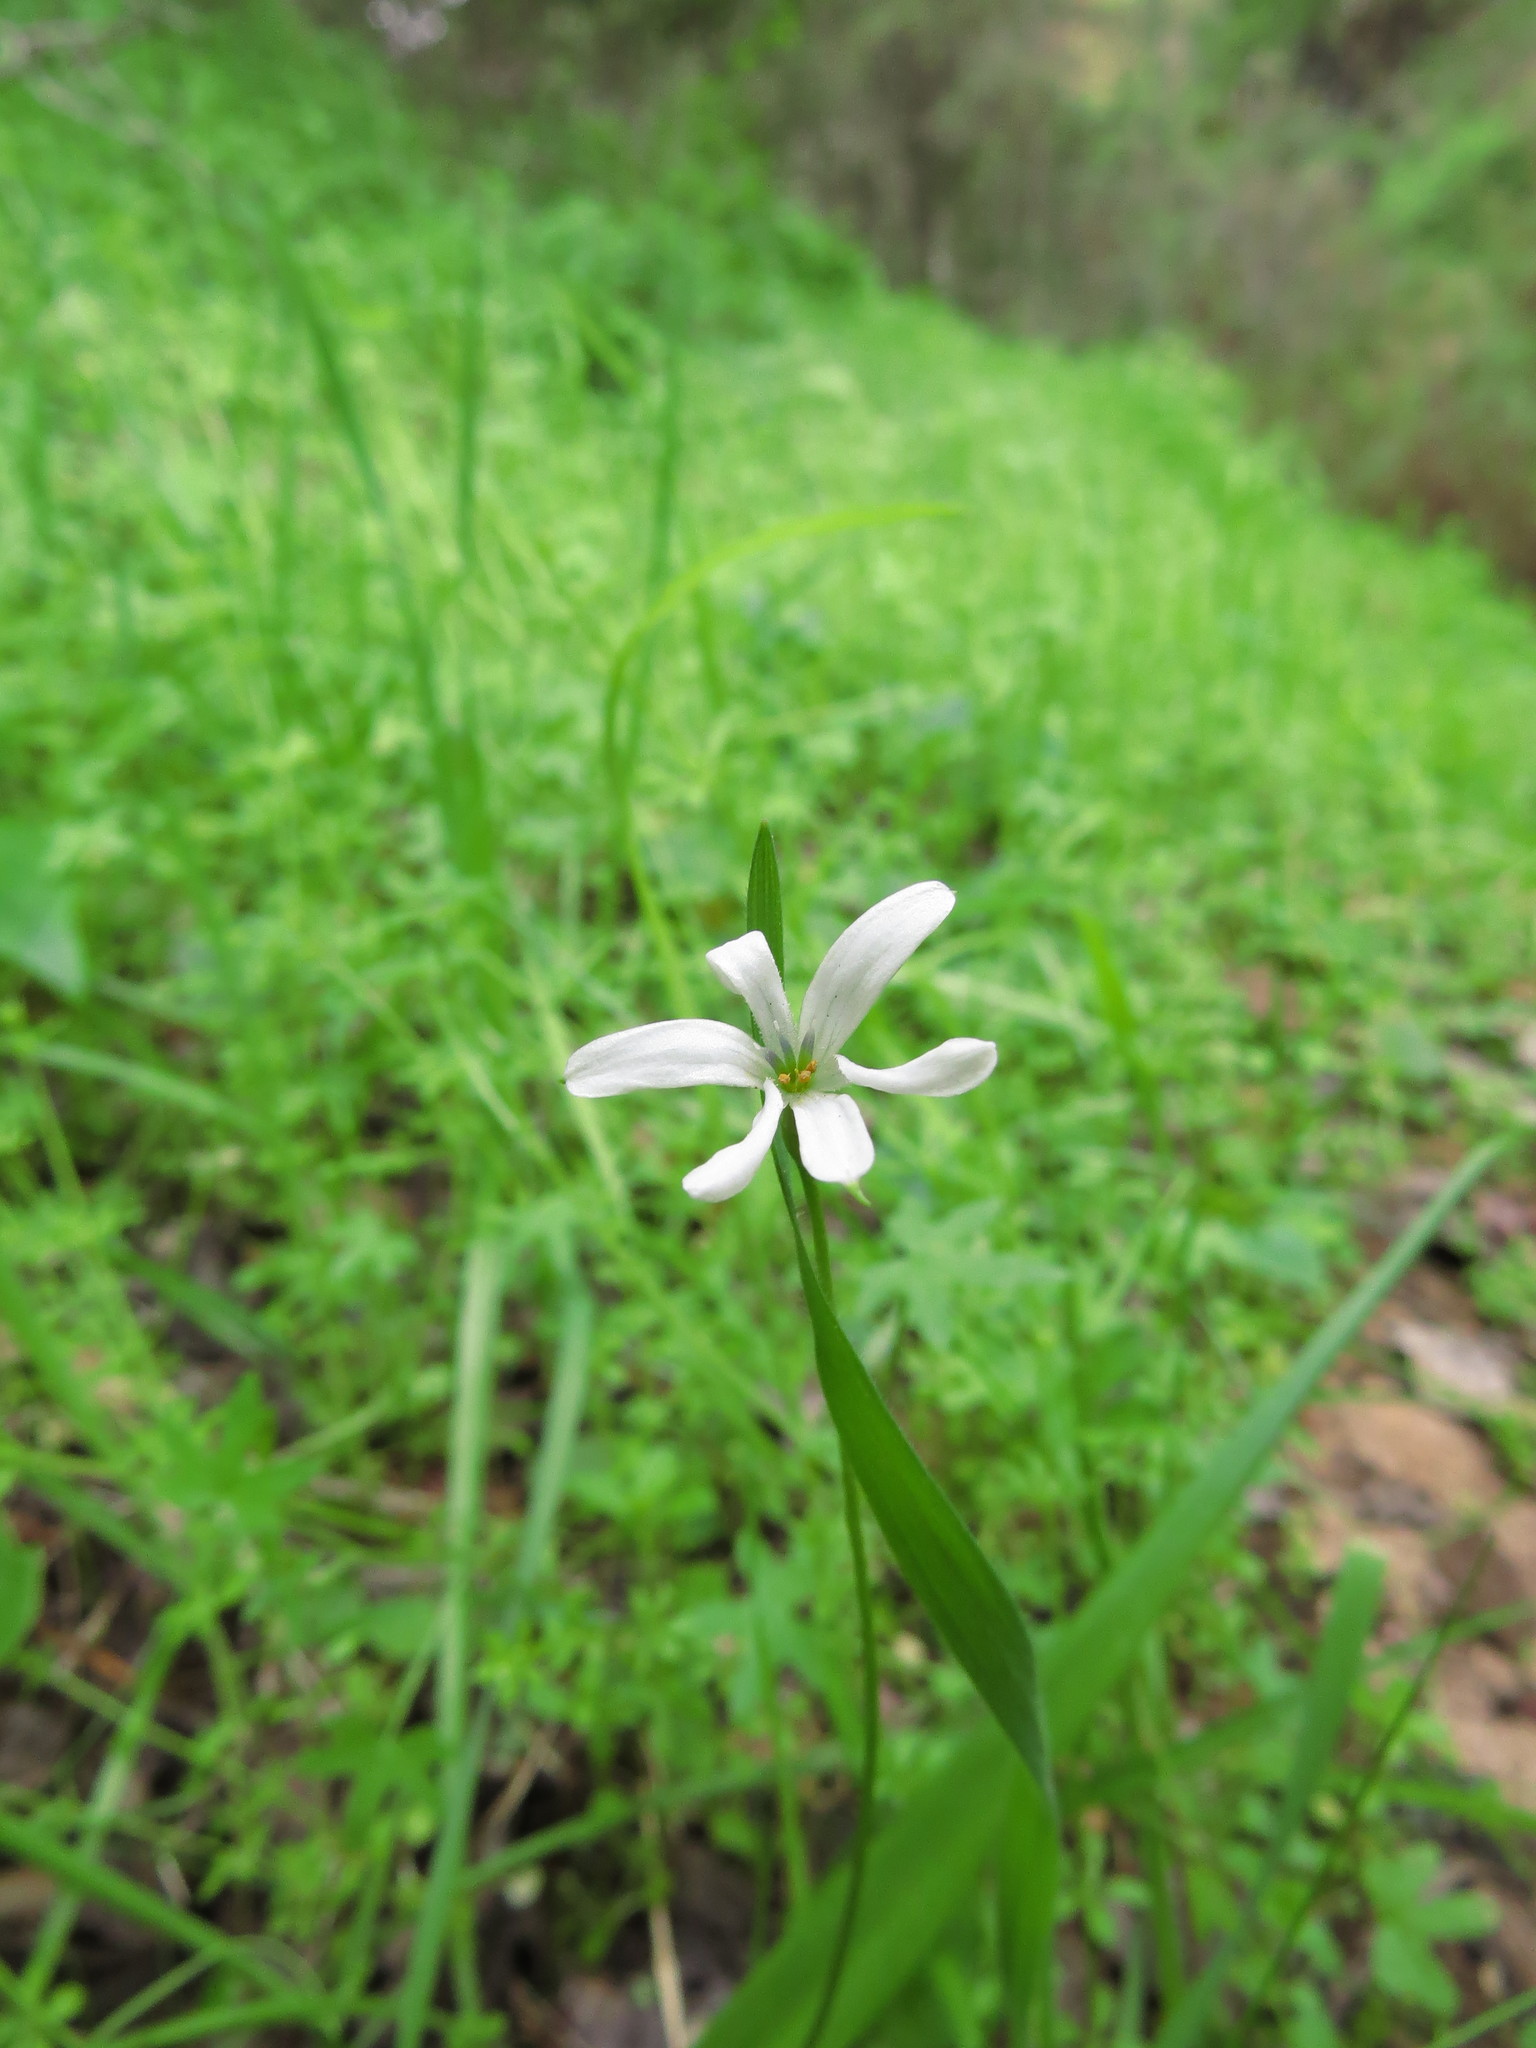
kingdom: Plantae
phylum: Tracheophyta
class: Liliopsida
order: Asparagales
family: Tecophilaeaceae
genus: Tecophilaea
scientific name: Tecophilaea violiflora
